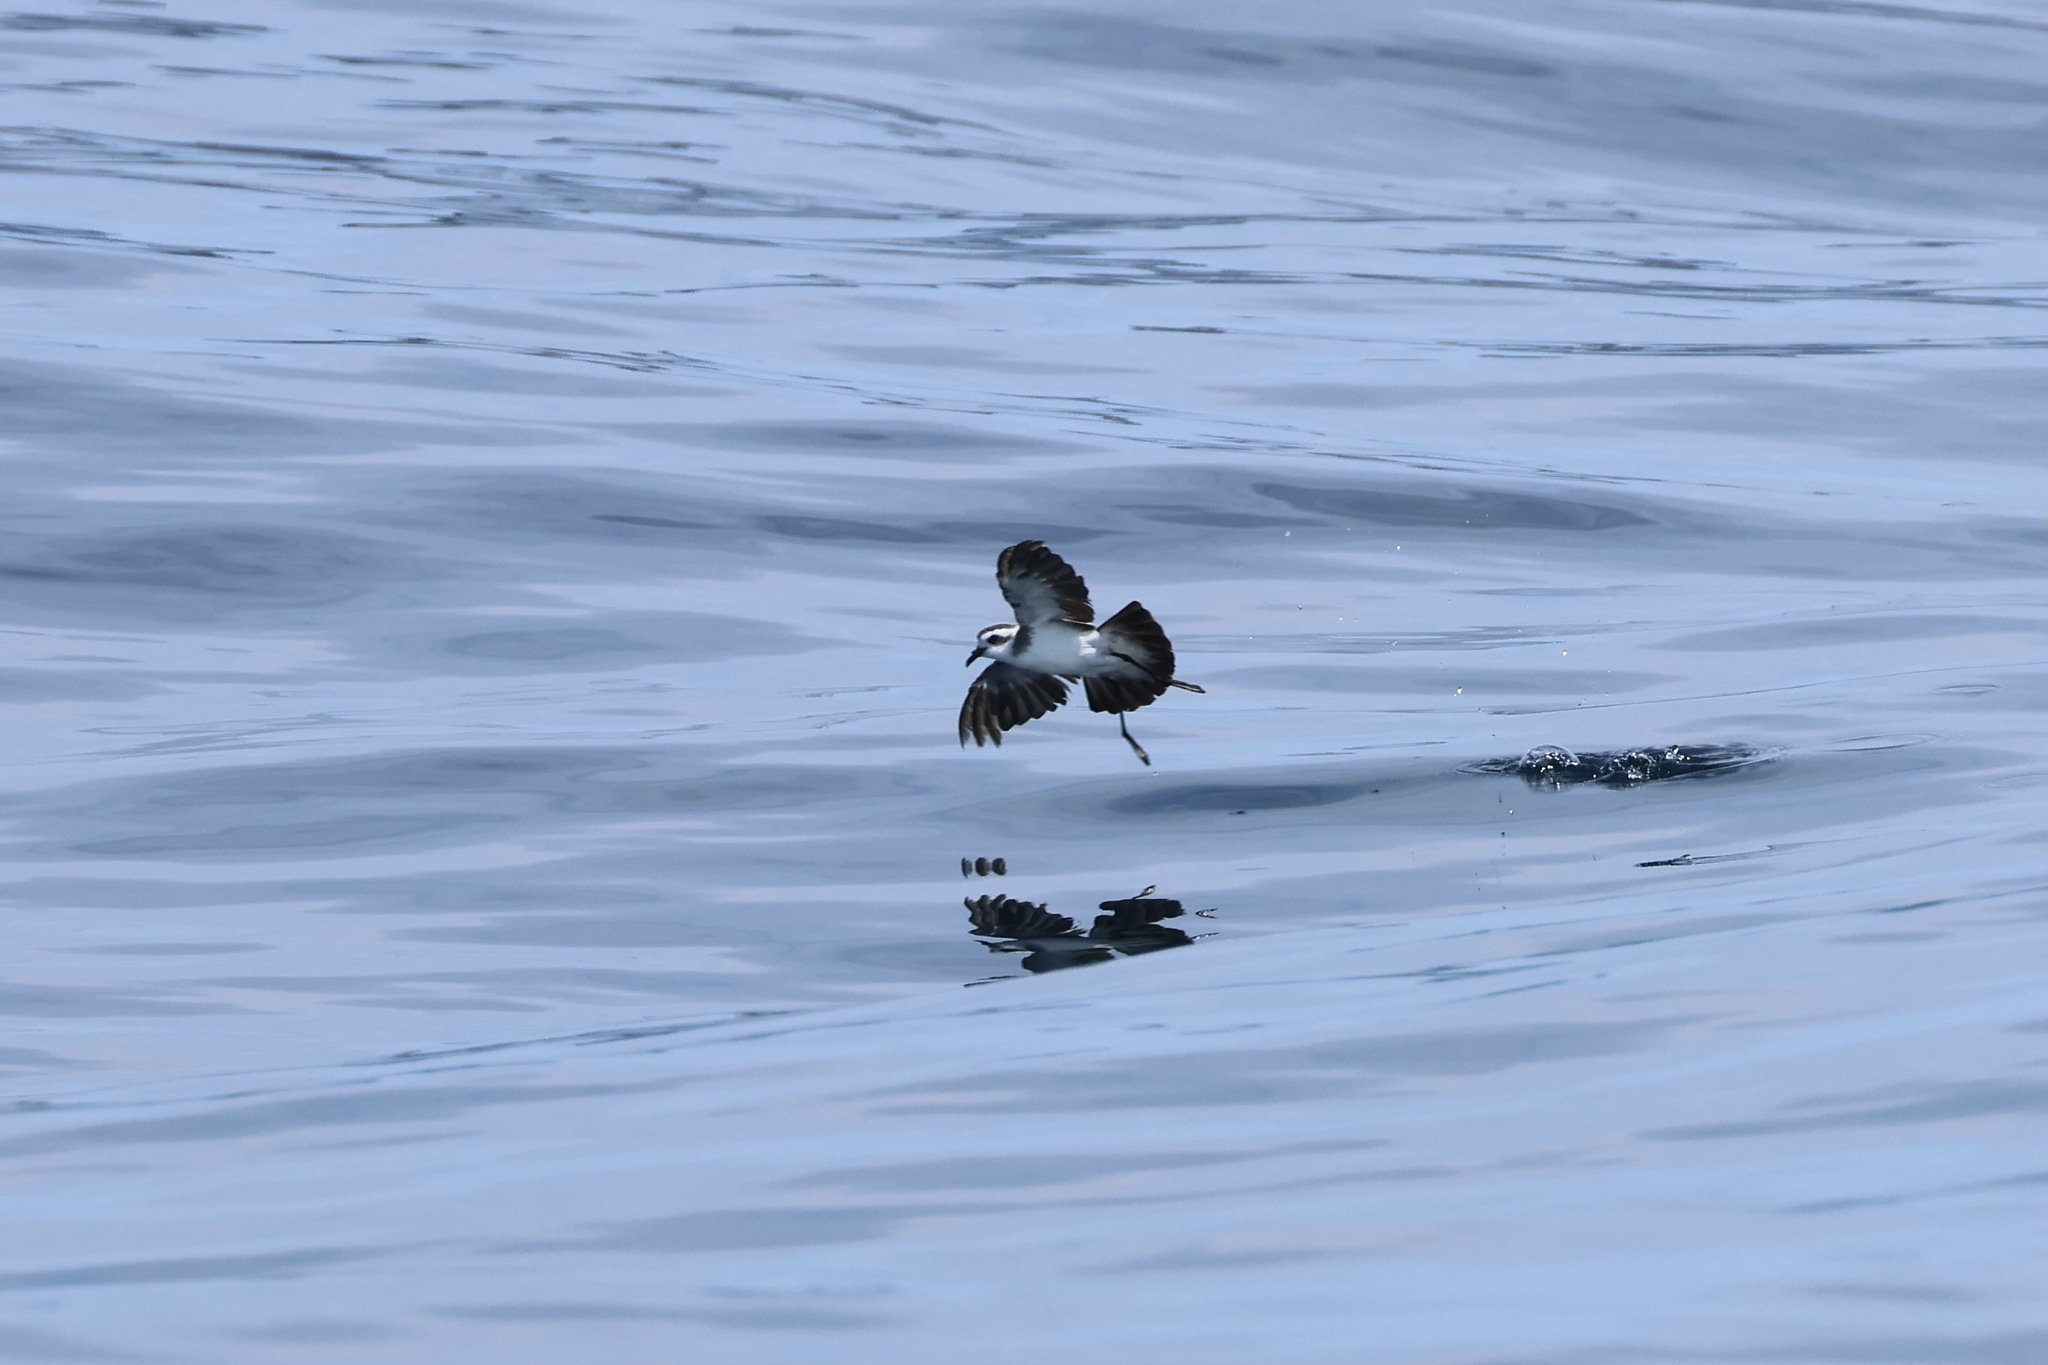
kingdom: Animalia
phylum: Chordata
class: Aves
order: Procellariiformes
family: Hydrobatidae
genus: Pelagodroma
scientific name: Pelagodroma marina
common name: White-faced storm-petrel
